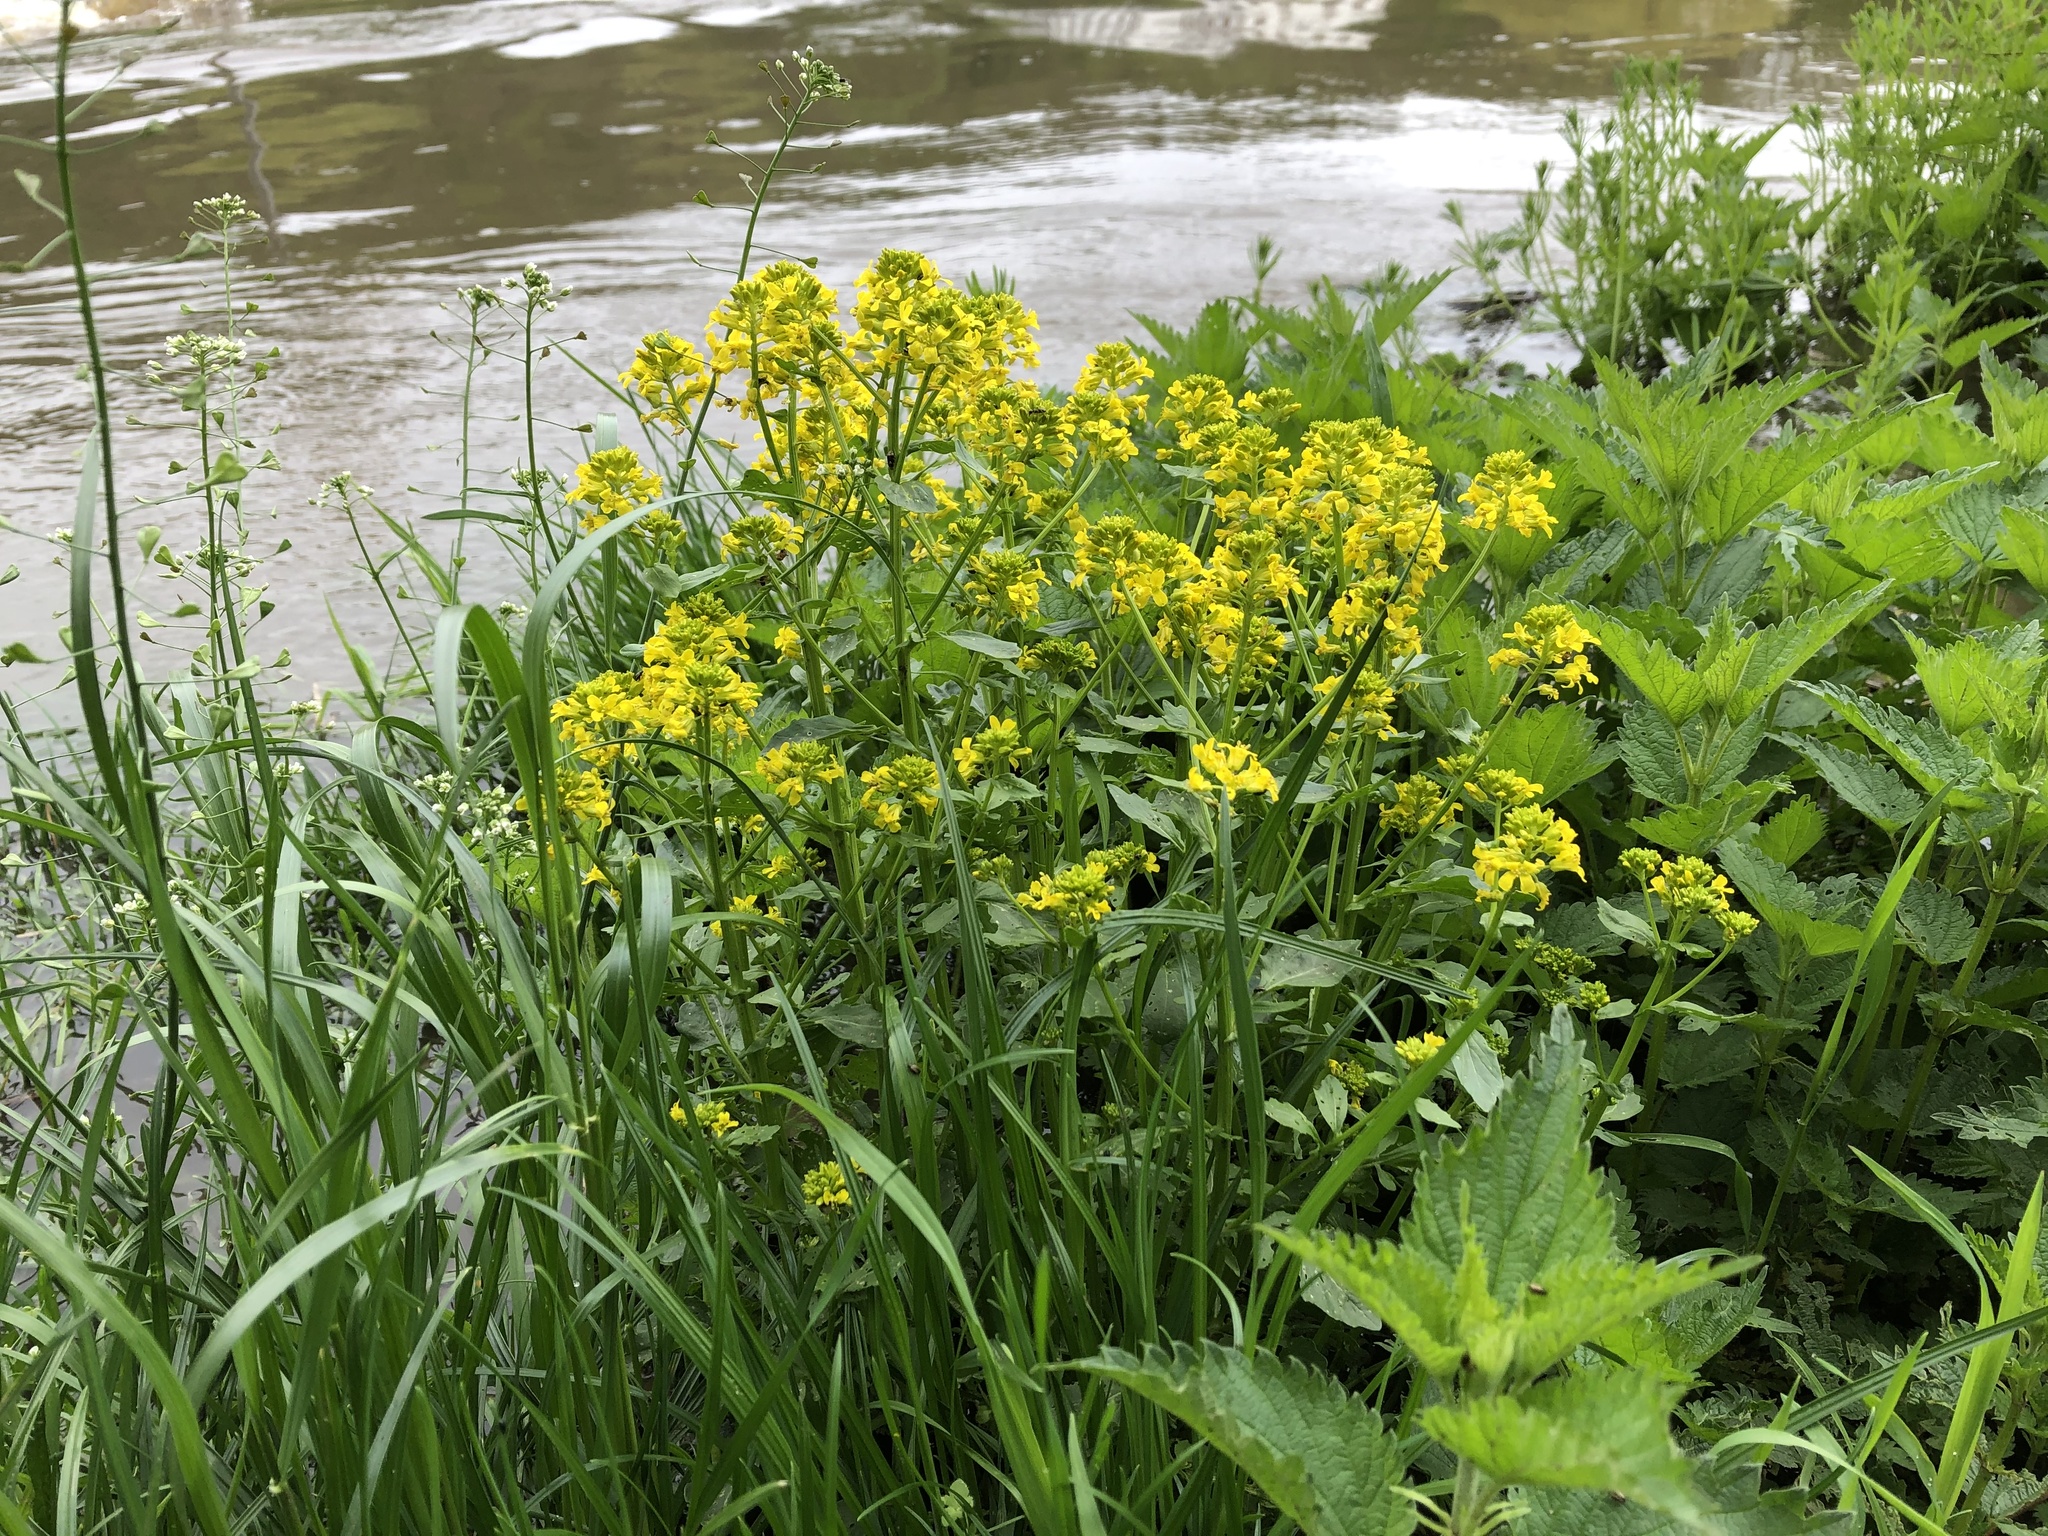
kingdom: Plantae
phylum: Tracheophyta
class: Magnoliopsida
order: Brassicales
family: Brassicaceae
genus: Barbarea
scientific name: Barbarea vulgaris
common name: Cressy-greens
